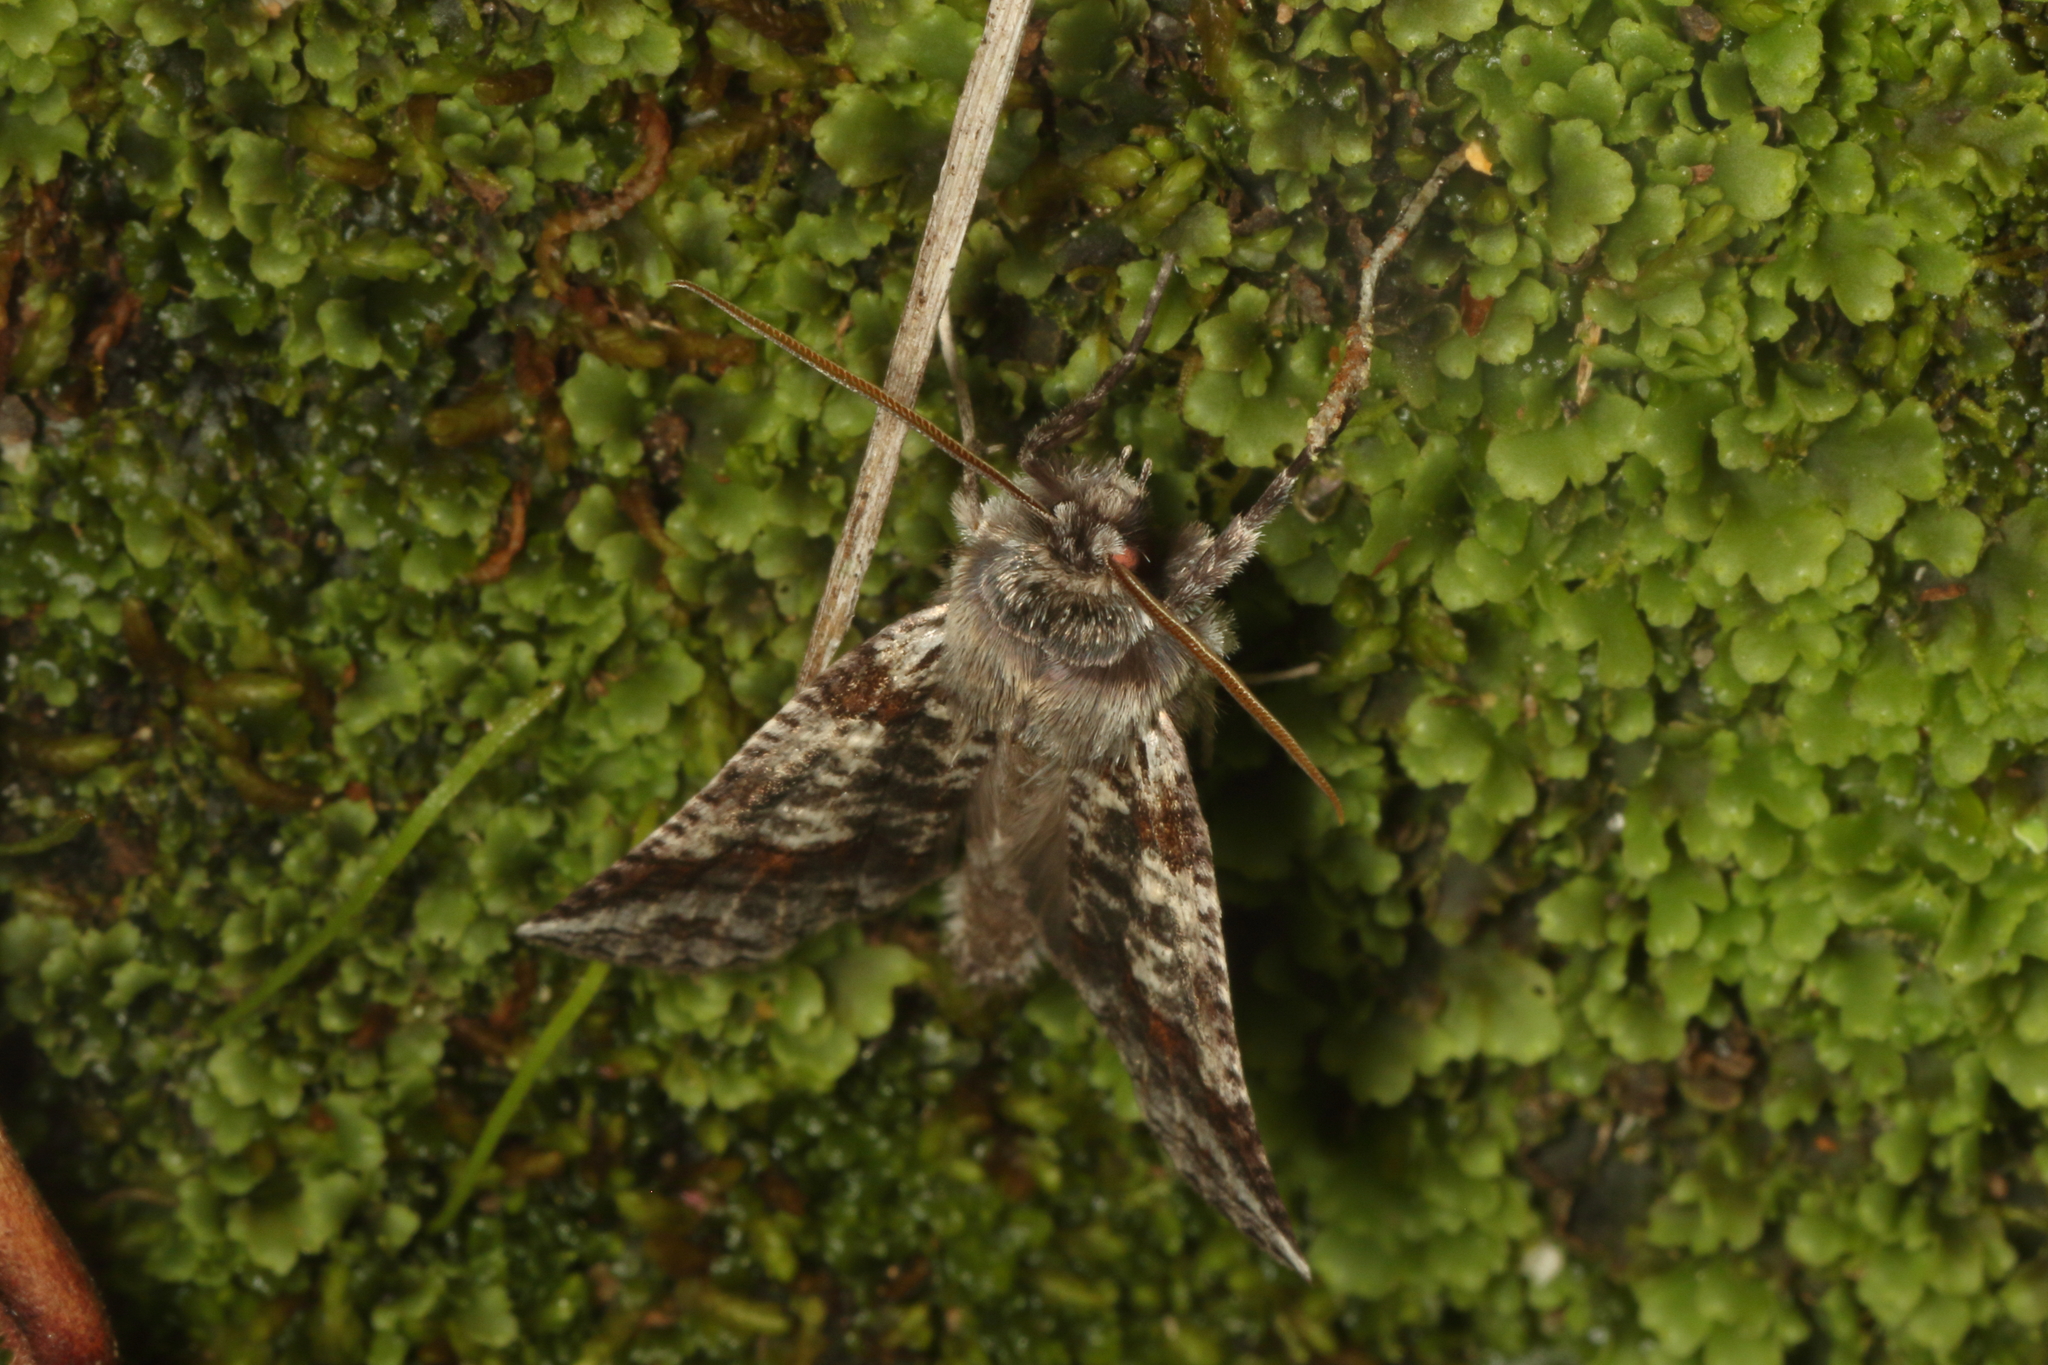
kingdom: Animalia
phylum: Arthropoda
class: Insecta
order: Lepidoptera
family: Geometridae
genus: Declana
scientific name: Declana
